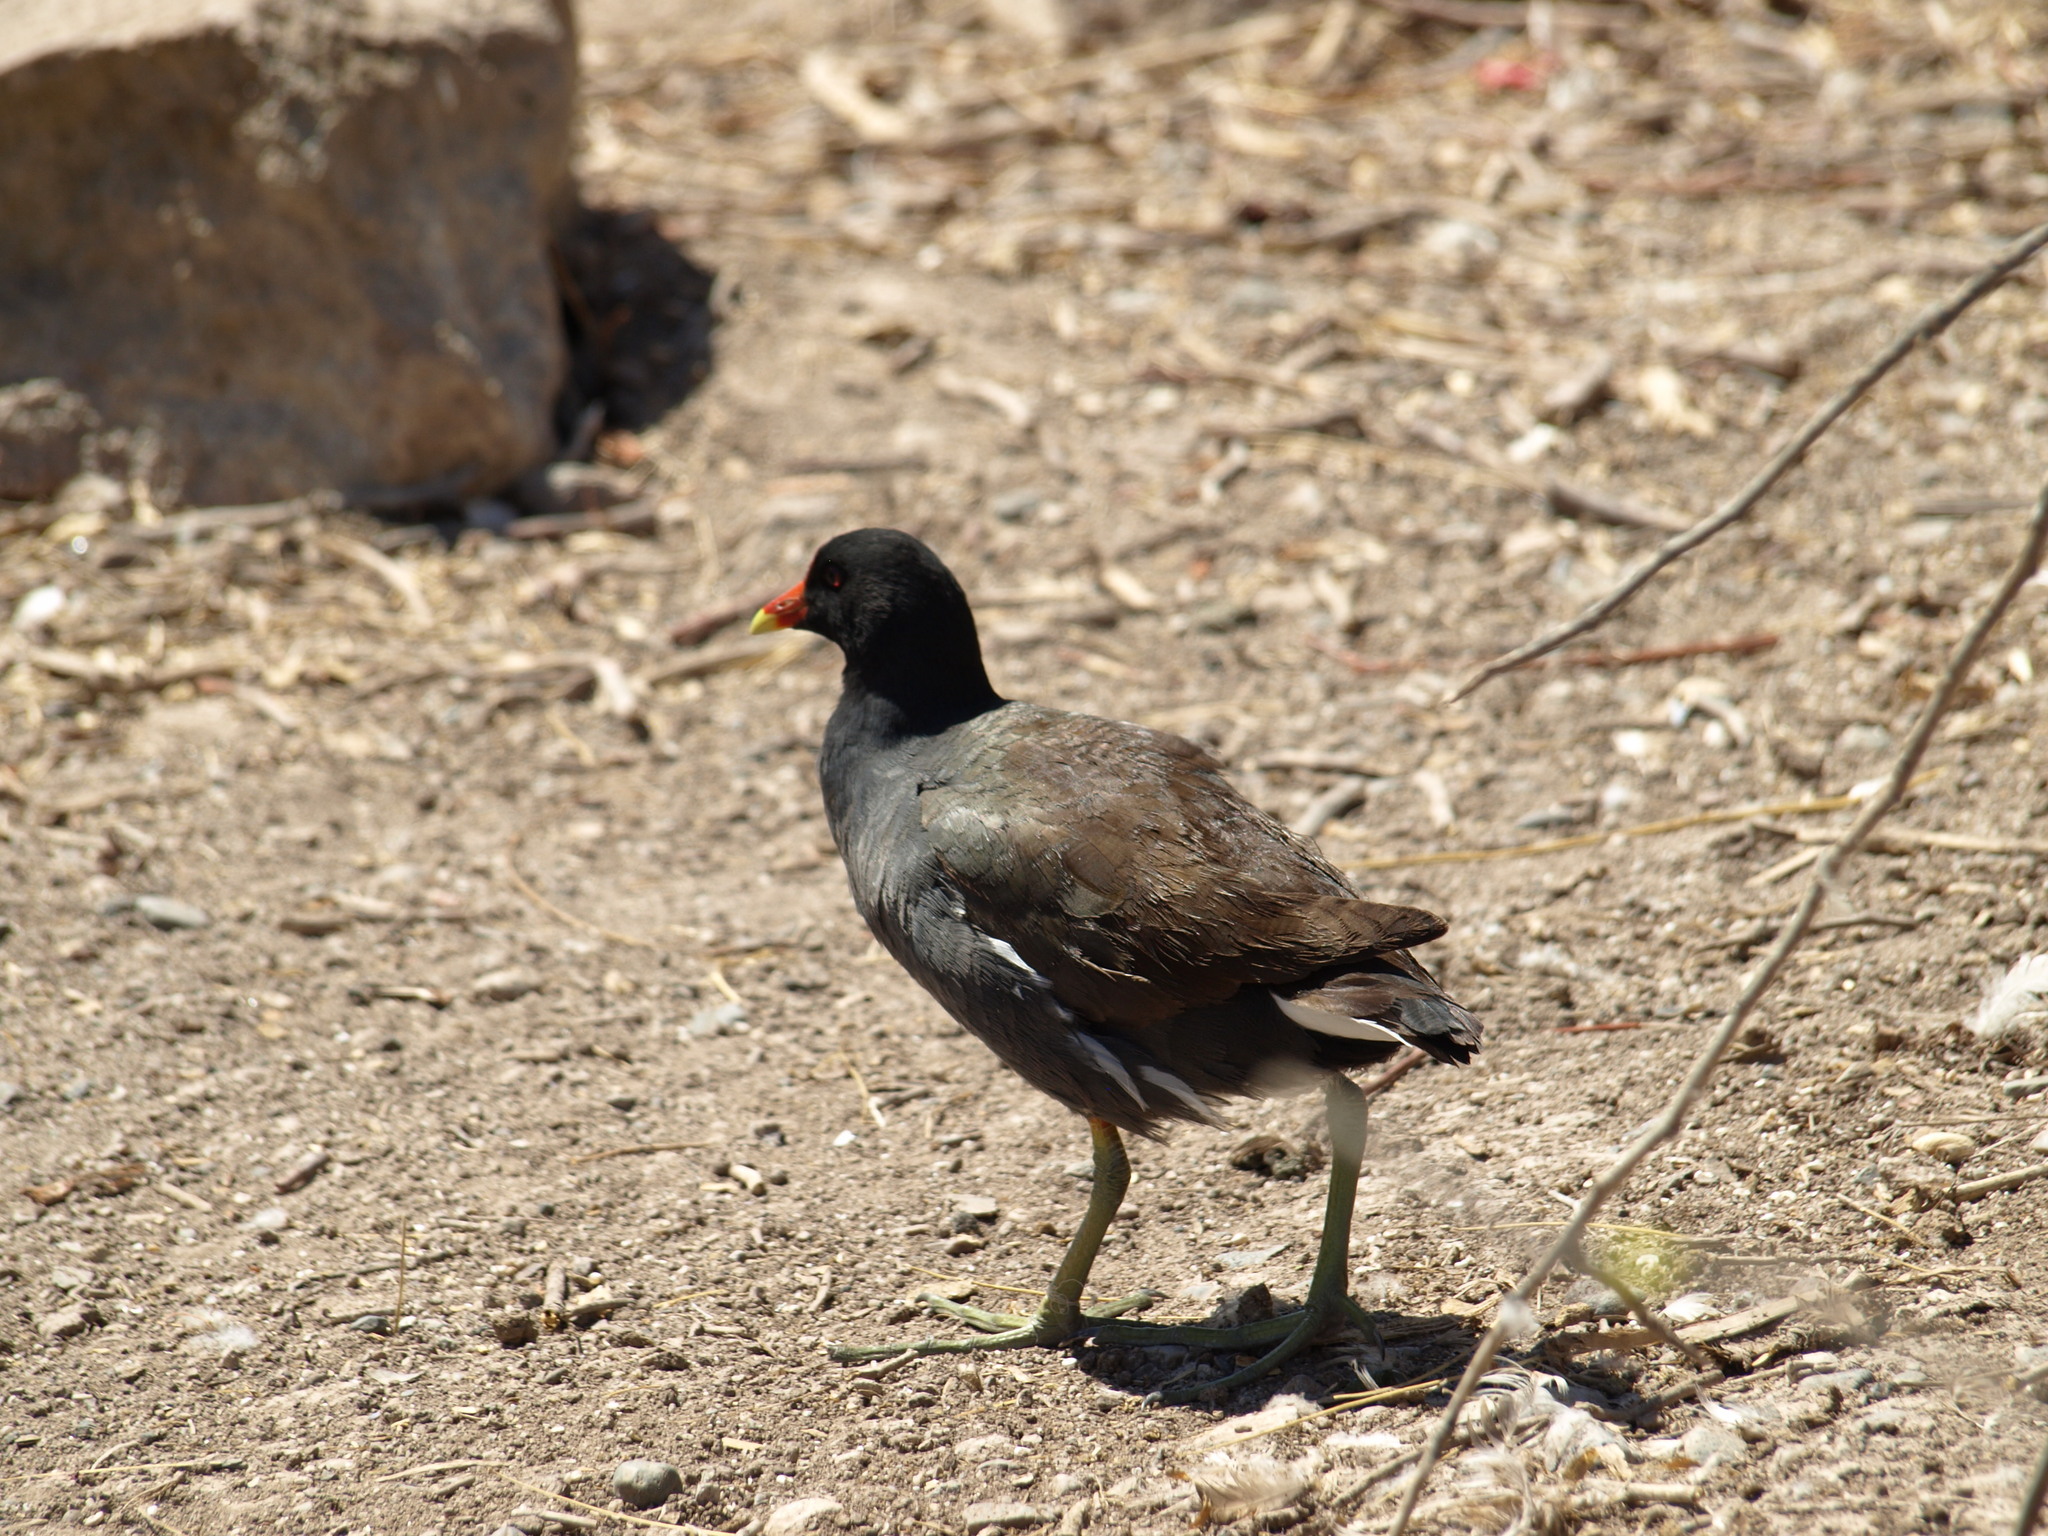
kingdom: Animalia
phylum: Chordata
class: Aves
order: Gruiformes
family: Rallidae
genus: Gallinula
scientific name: Gallinula chloropus
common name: Common moorhen
